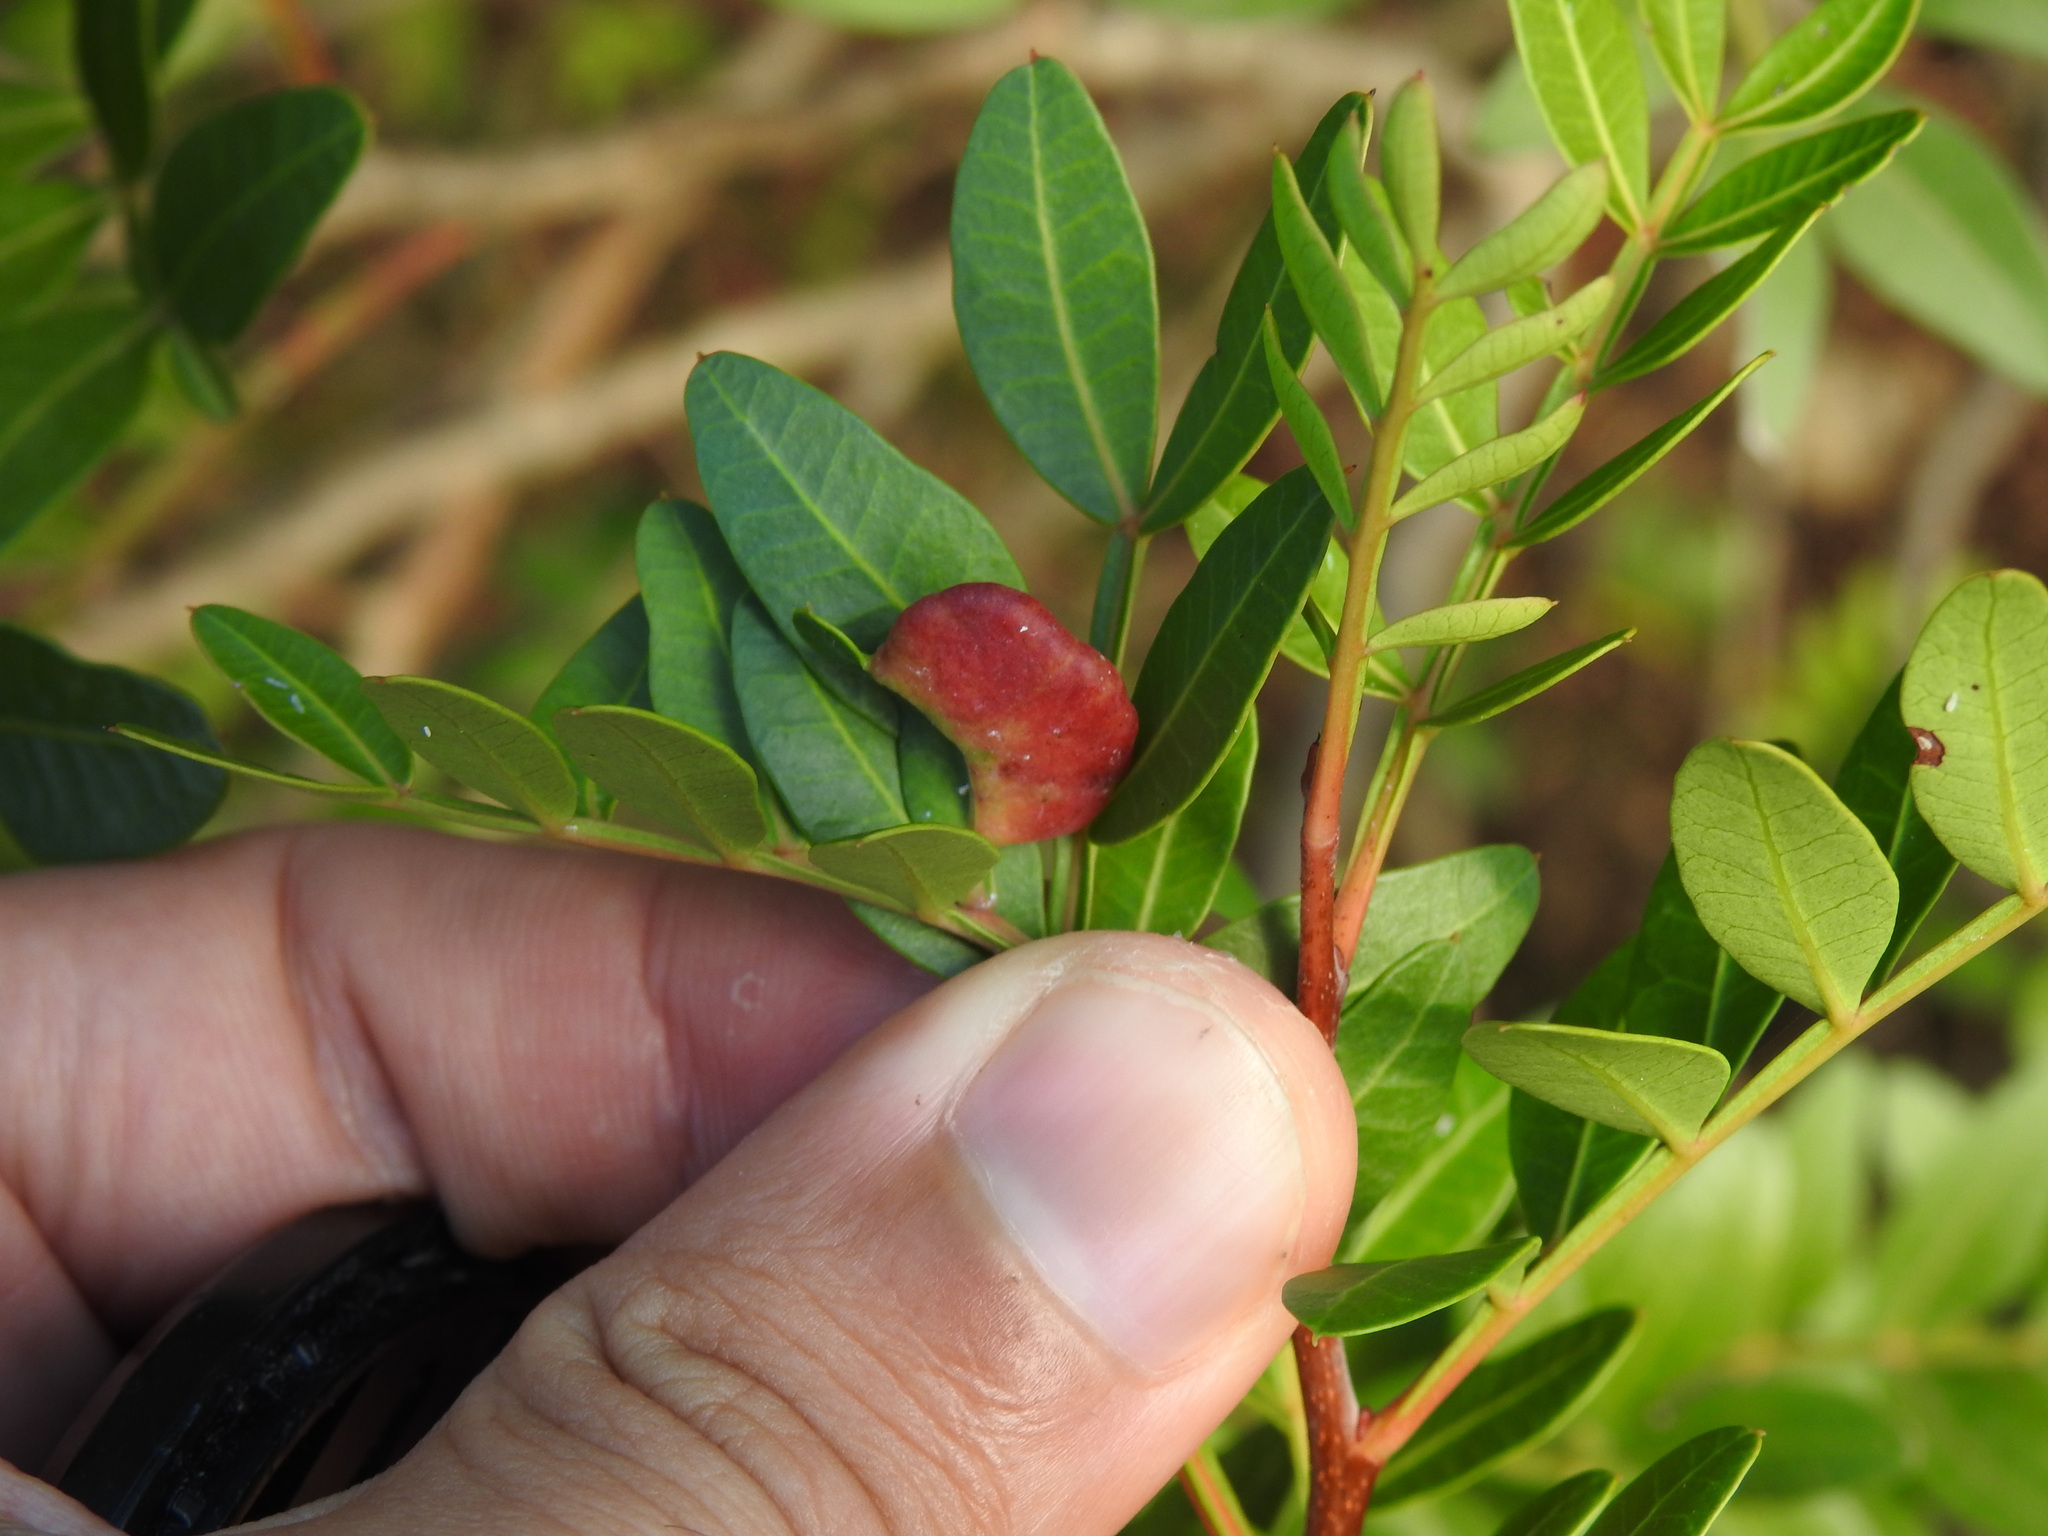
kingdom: Animalia
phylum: Arthropoda
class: Insecta
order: Hemiptera
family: Aphididae
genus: Aploneura
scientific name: Aploneura lentisci
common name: Mealy grass root aphid
